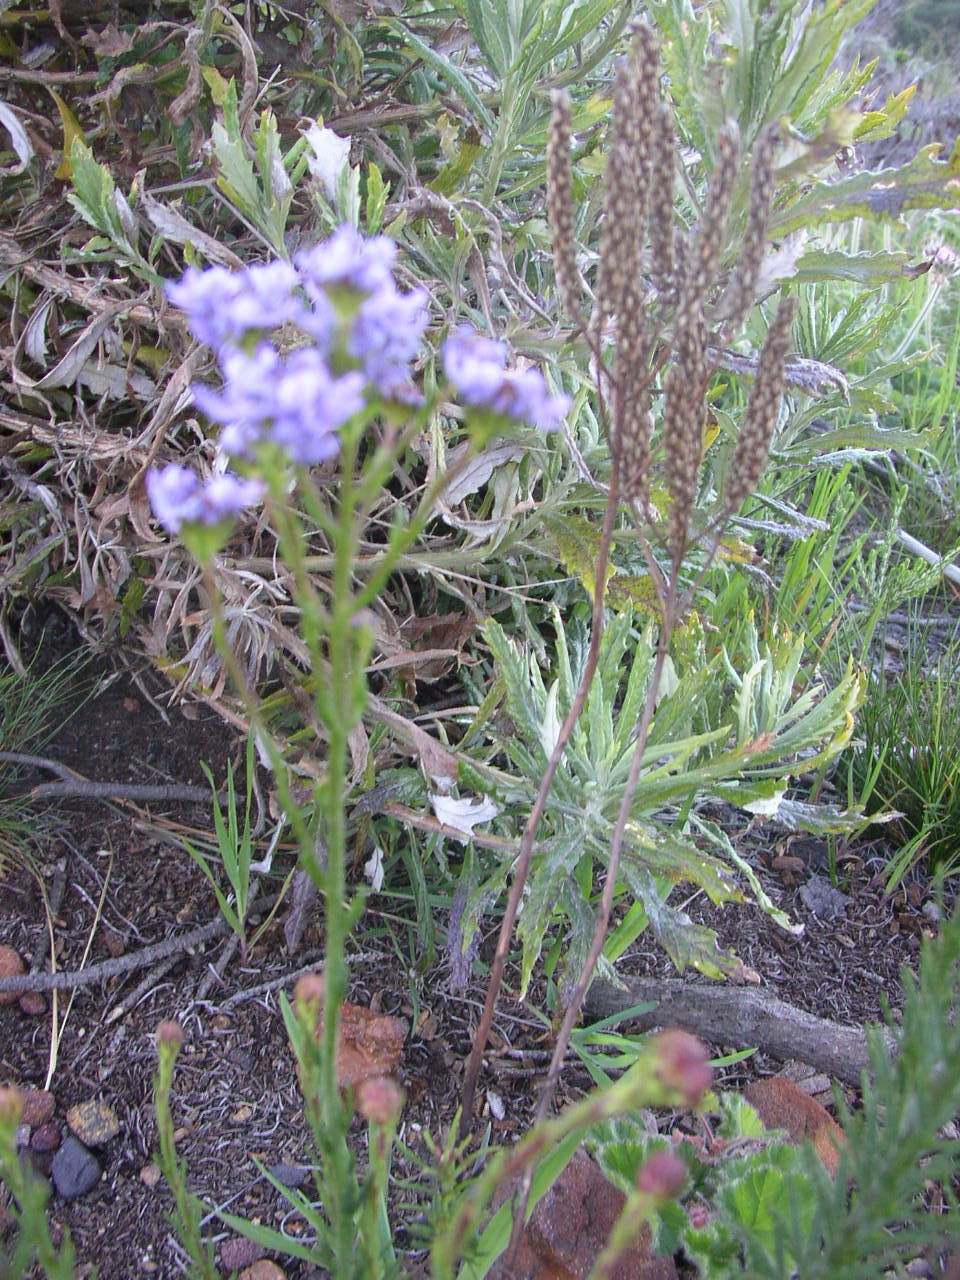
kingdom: Plantae
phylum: Tracheophyta
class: Magnoliopsida
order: Lamiales
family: Scrophulariaceae
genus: Pseudoselago
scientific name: Pseudoselago spuria
